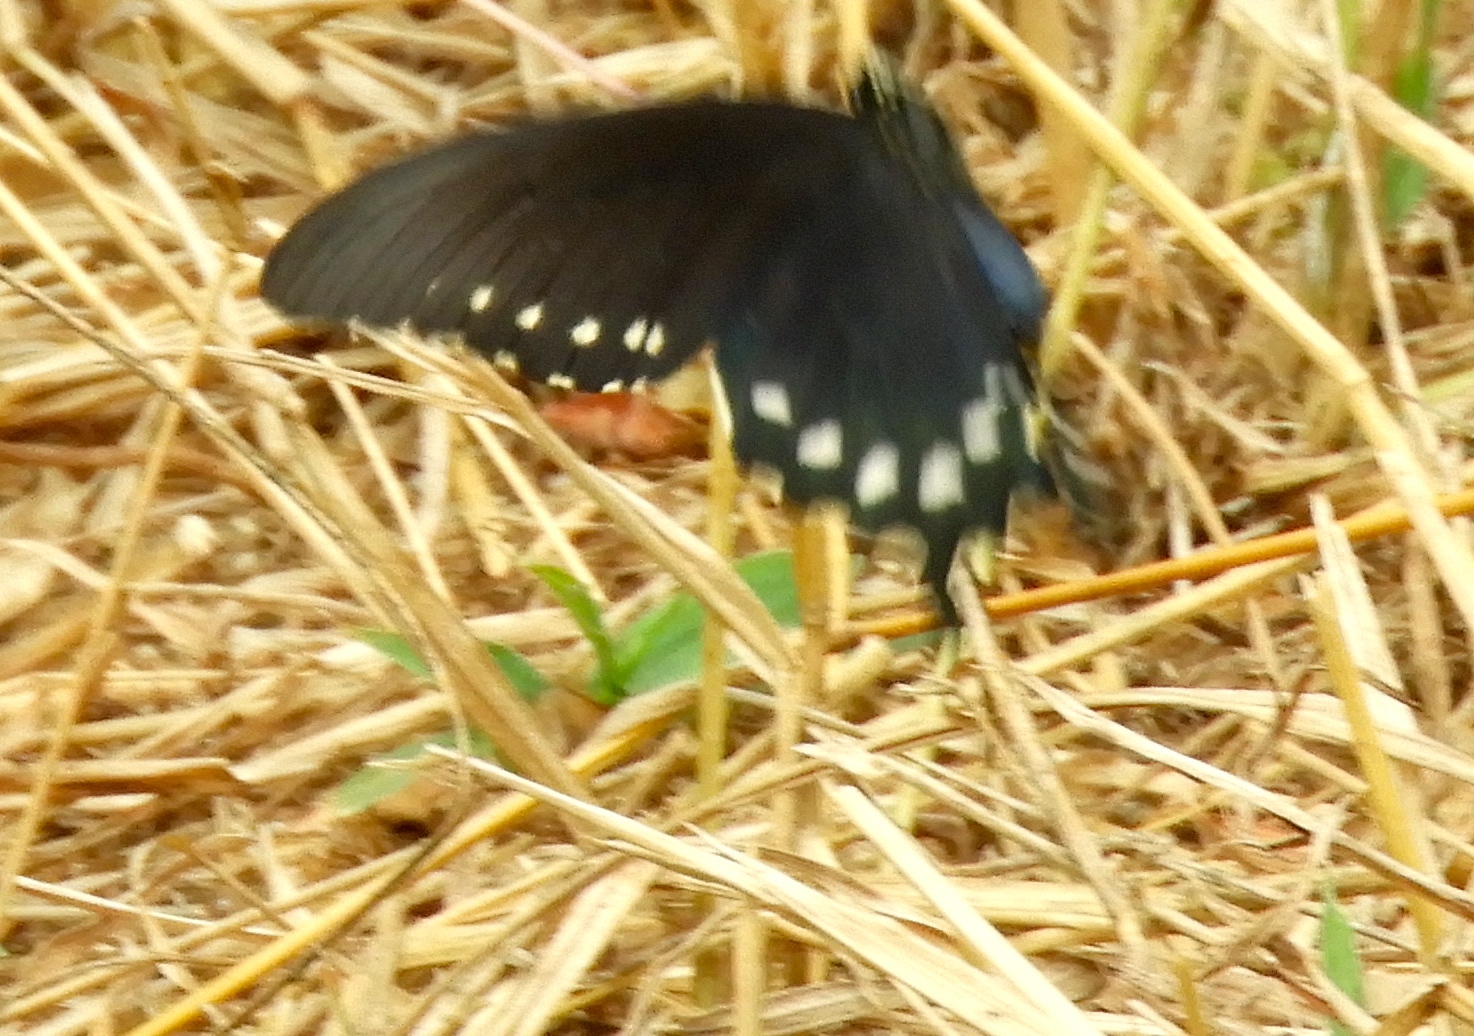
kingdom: Animalia
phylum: Arthropoda
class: Insecta
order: Lepidoptera
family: Papilionidae
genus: Battus
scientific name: Battus philenor
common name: Pipevine swallowtail
